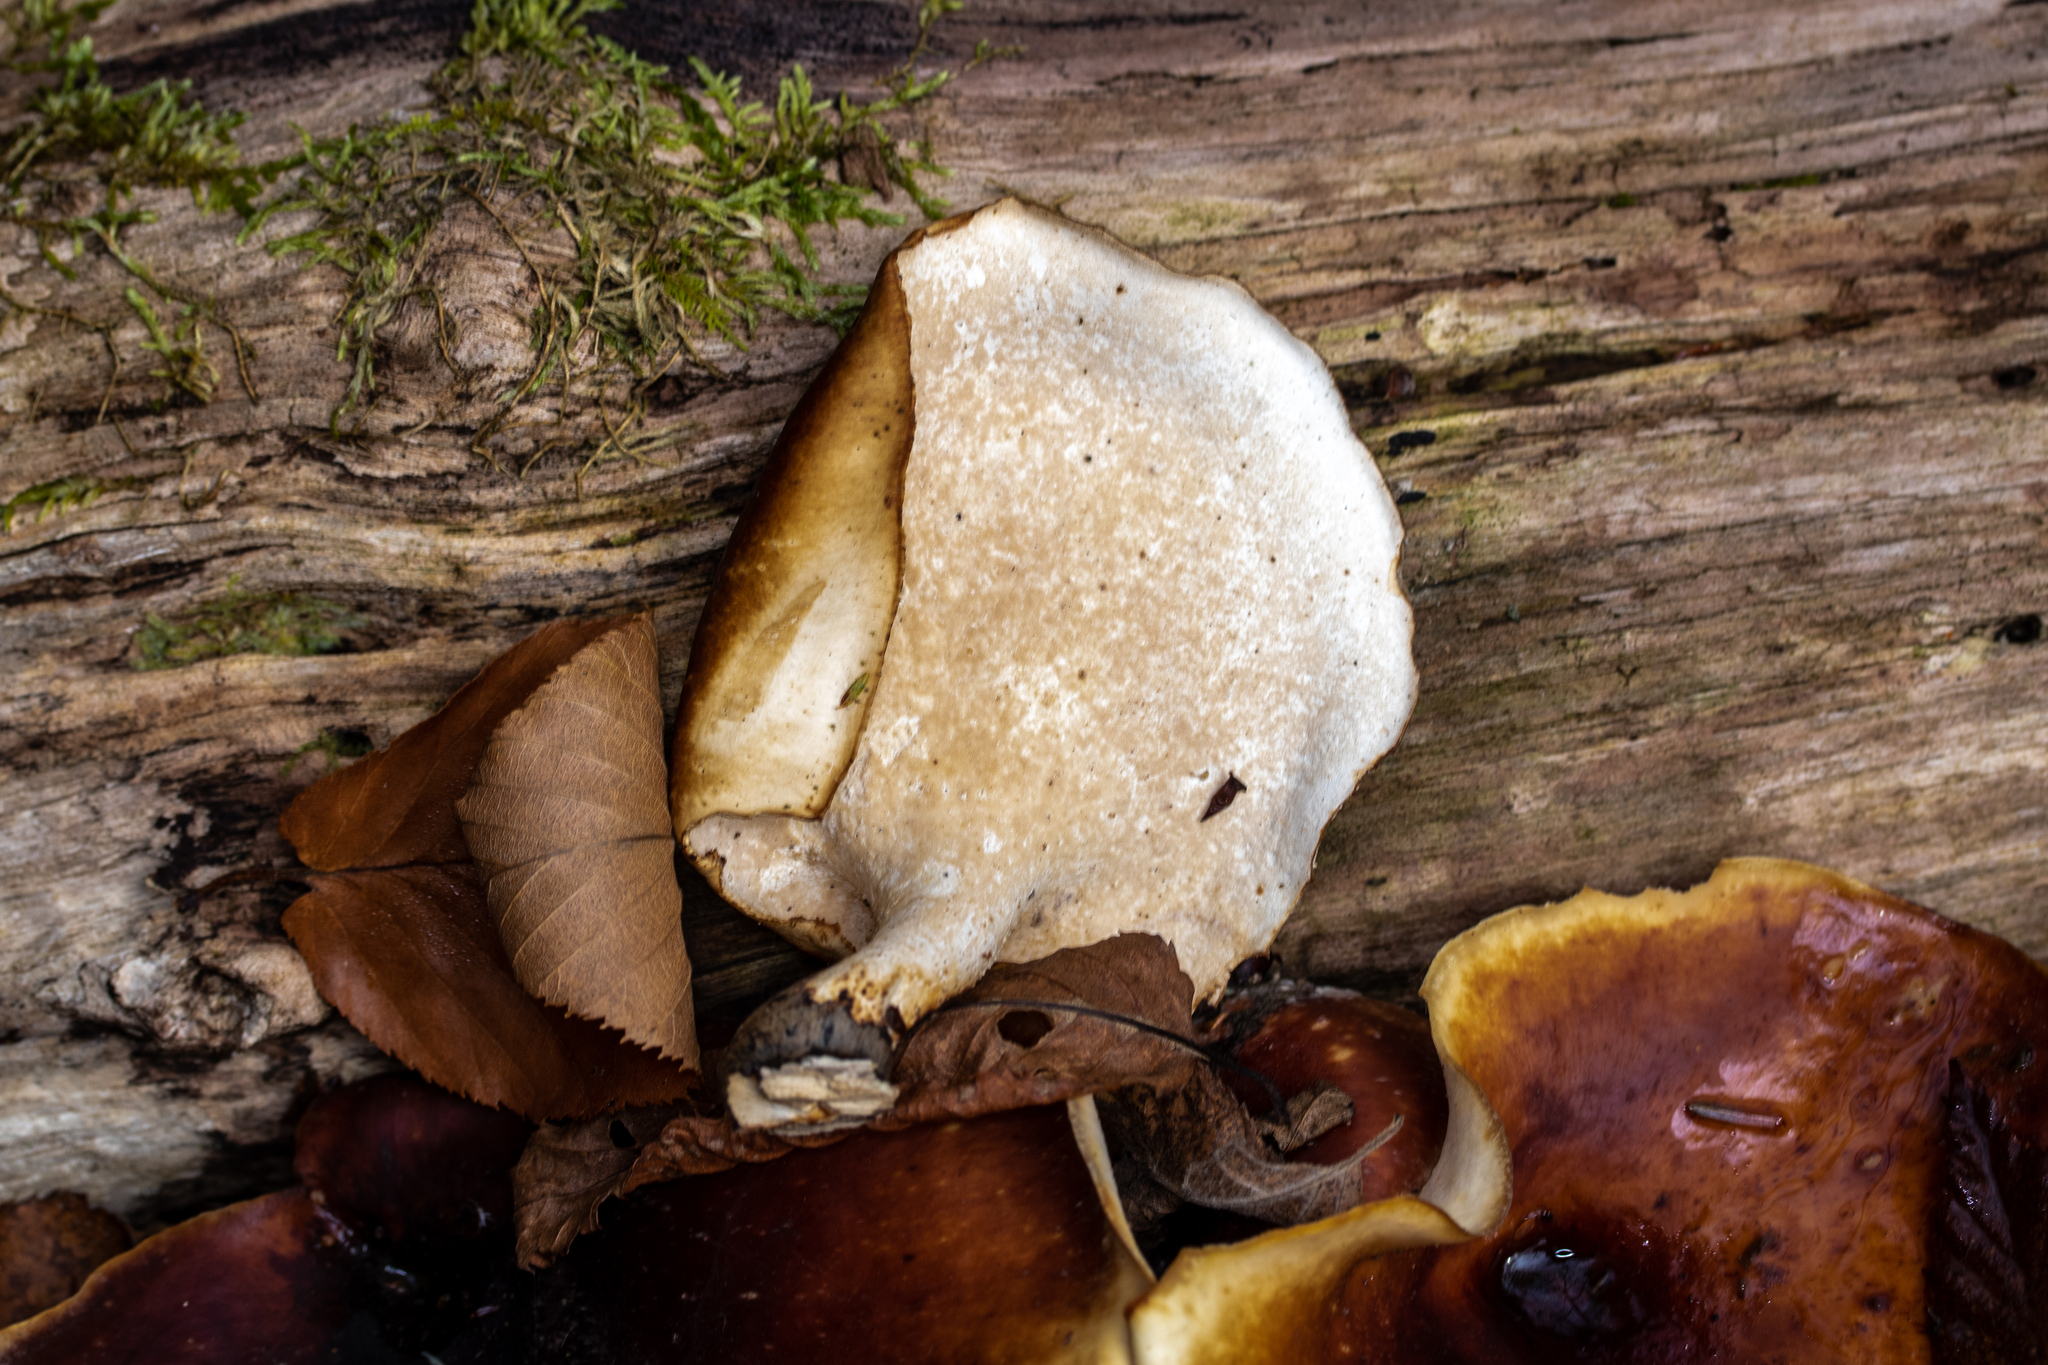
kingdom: Fungi
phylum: Basidiomycota
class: Agaricomycetes
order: Polyporales
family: Polyporaceae
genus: Picipes
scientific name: Picipes badius
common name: Bay polypore
